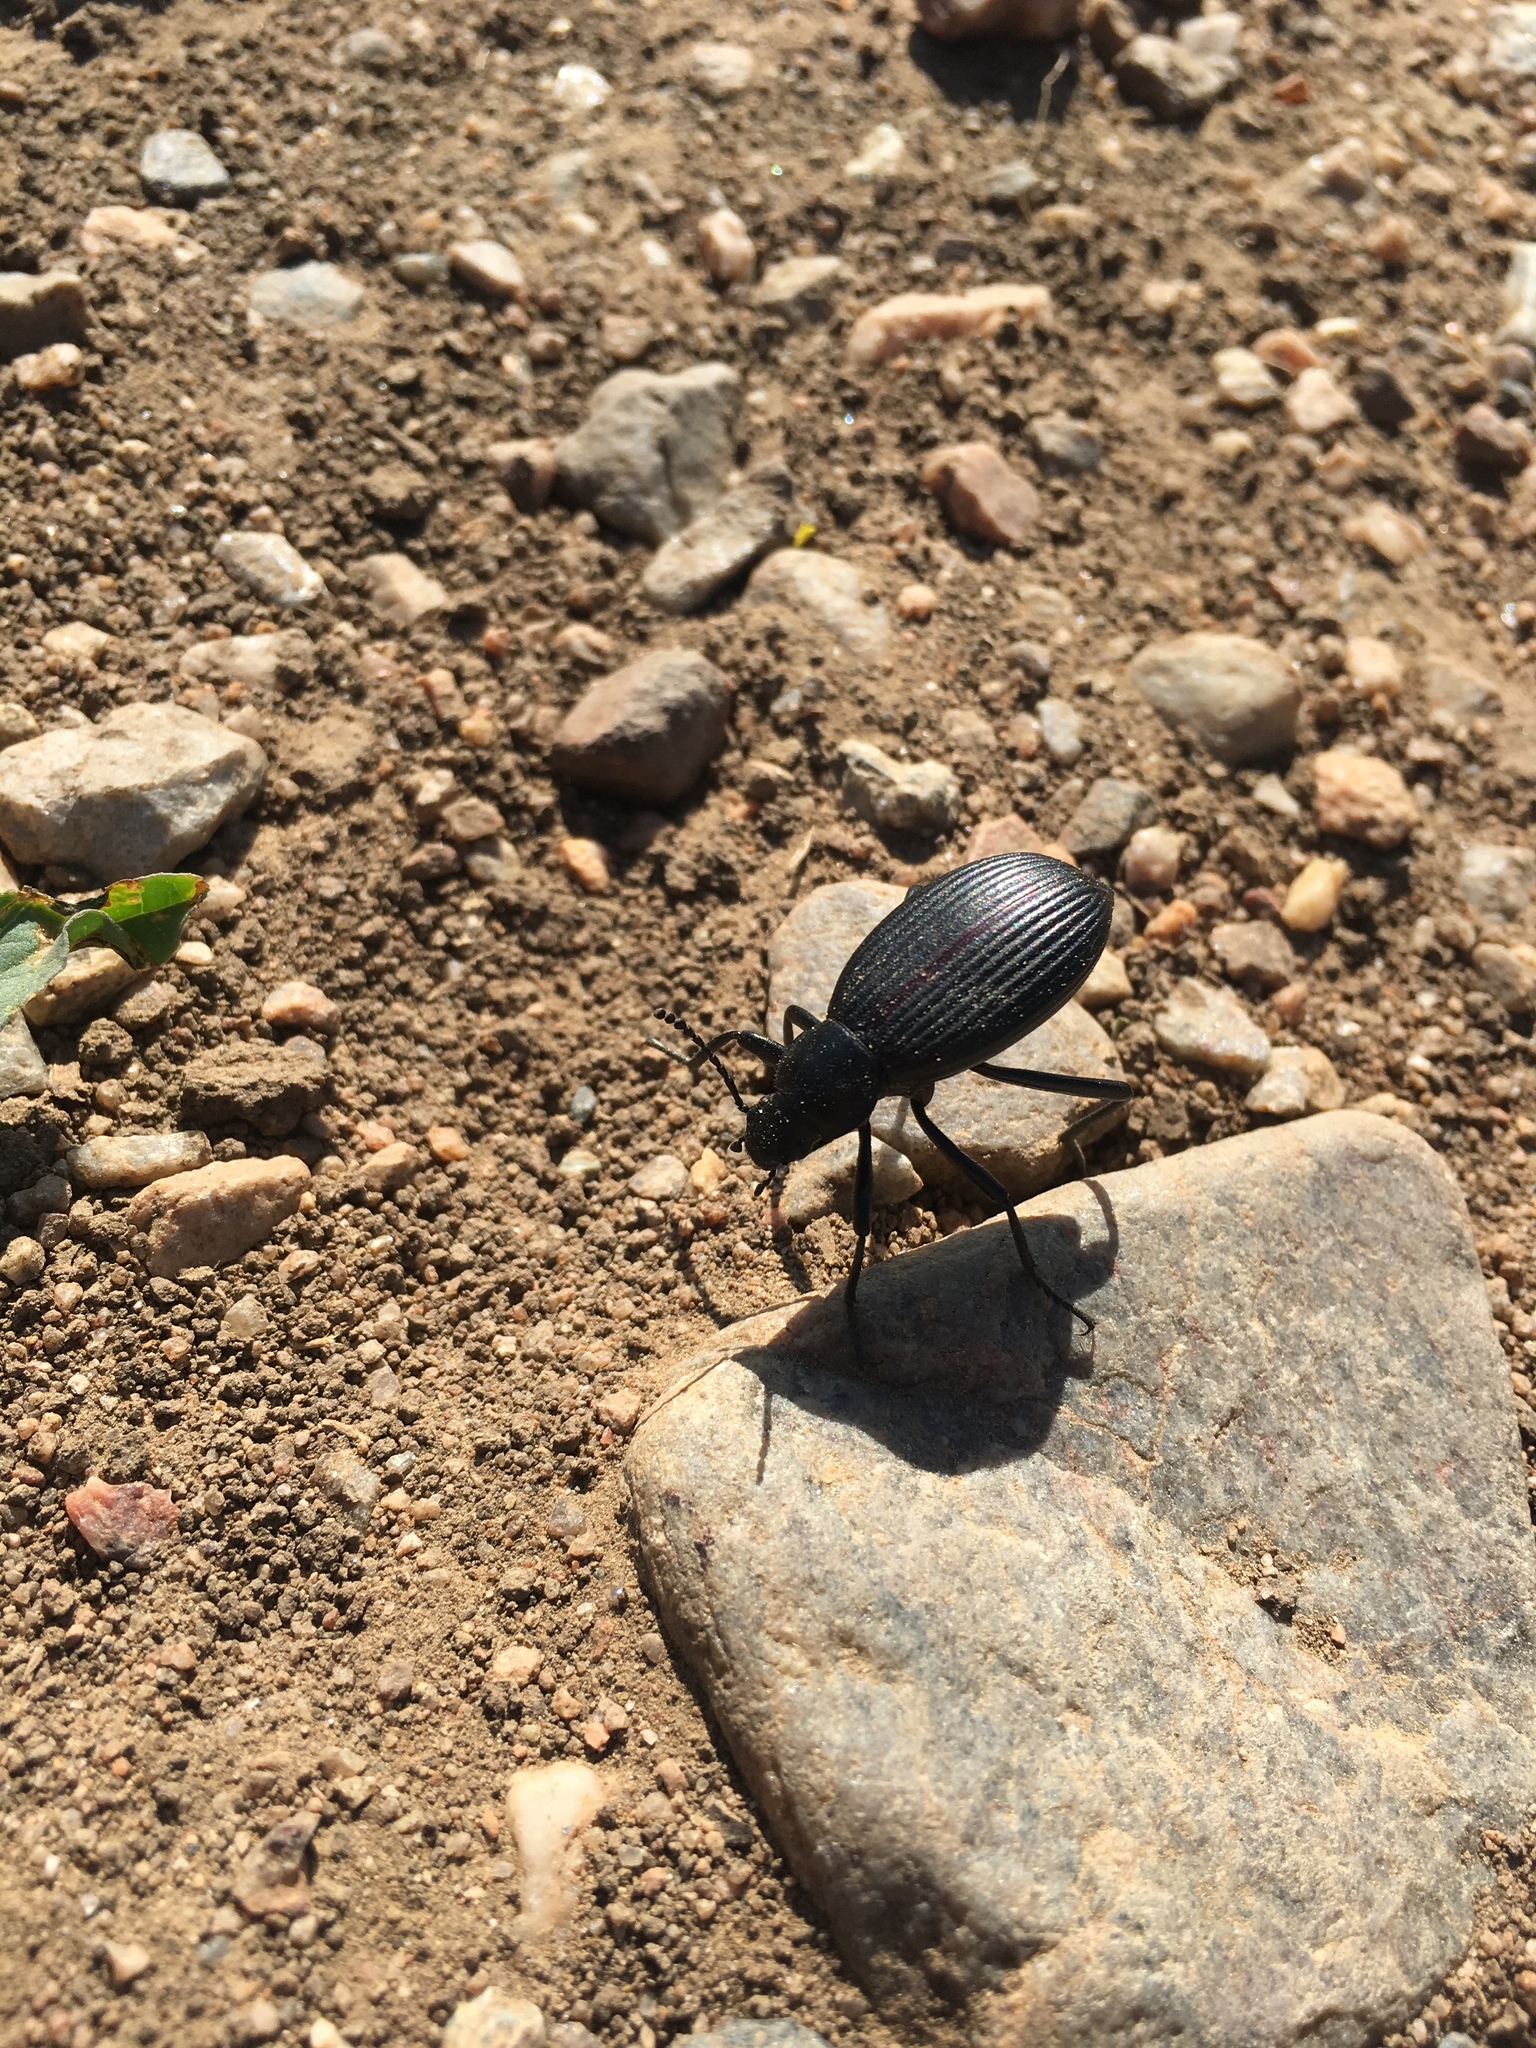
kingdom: Animalia
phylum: Arthropoda
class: Insecta
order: Coleoptera
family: Tenebrionidae
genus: Eleodes
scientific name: Eleodes hispilabris
